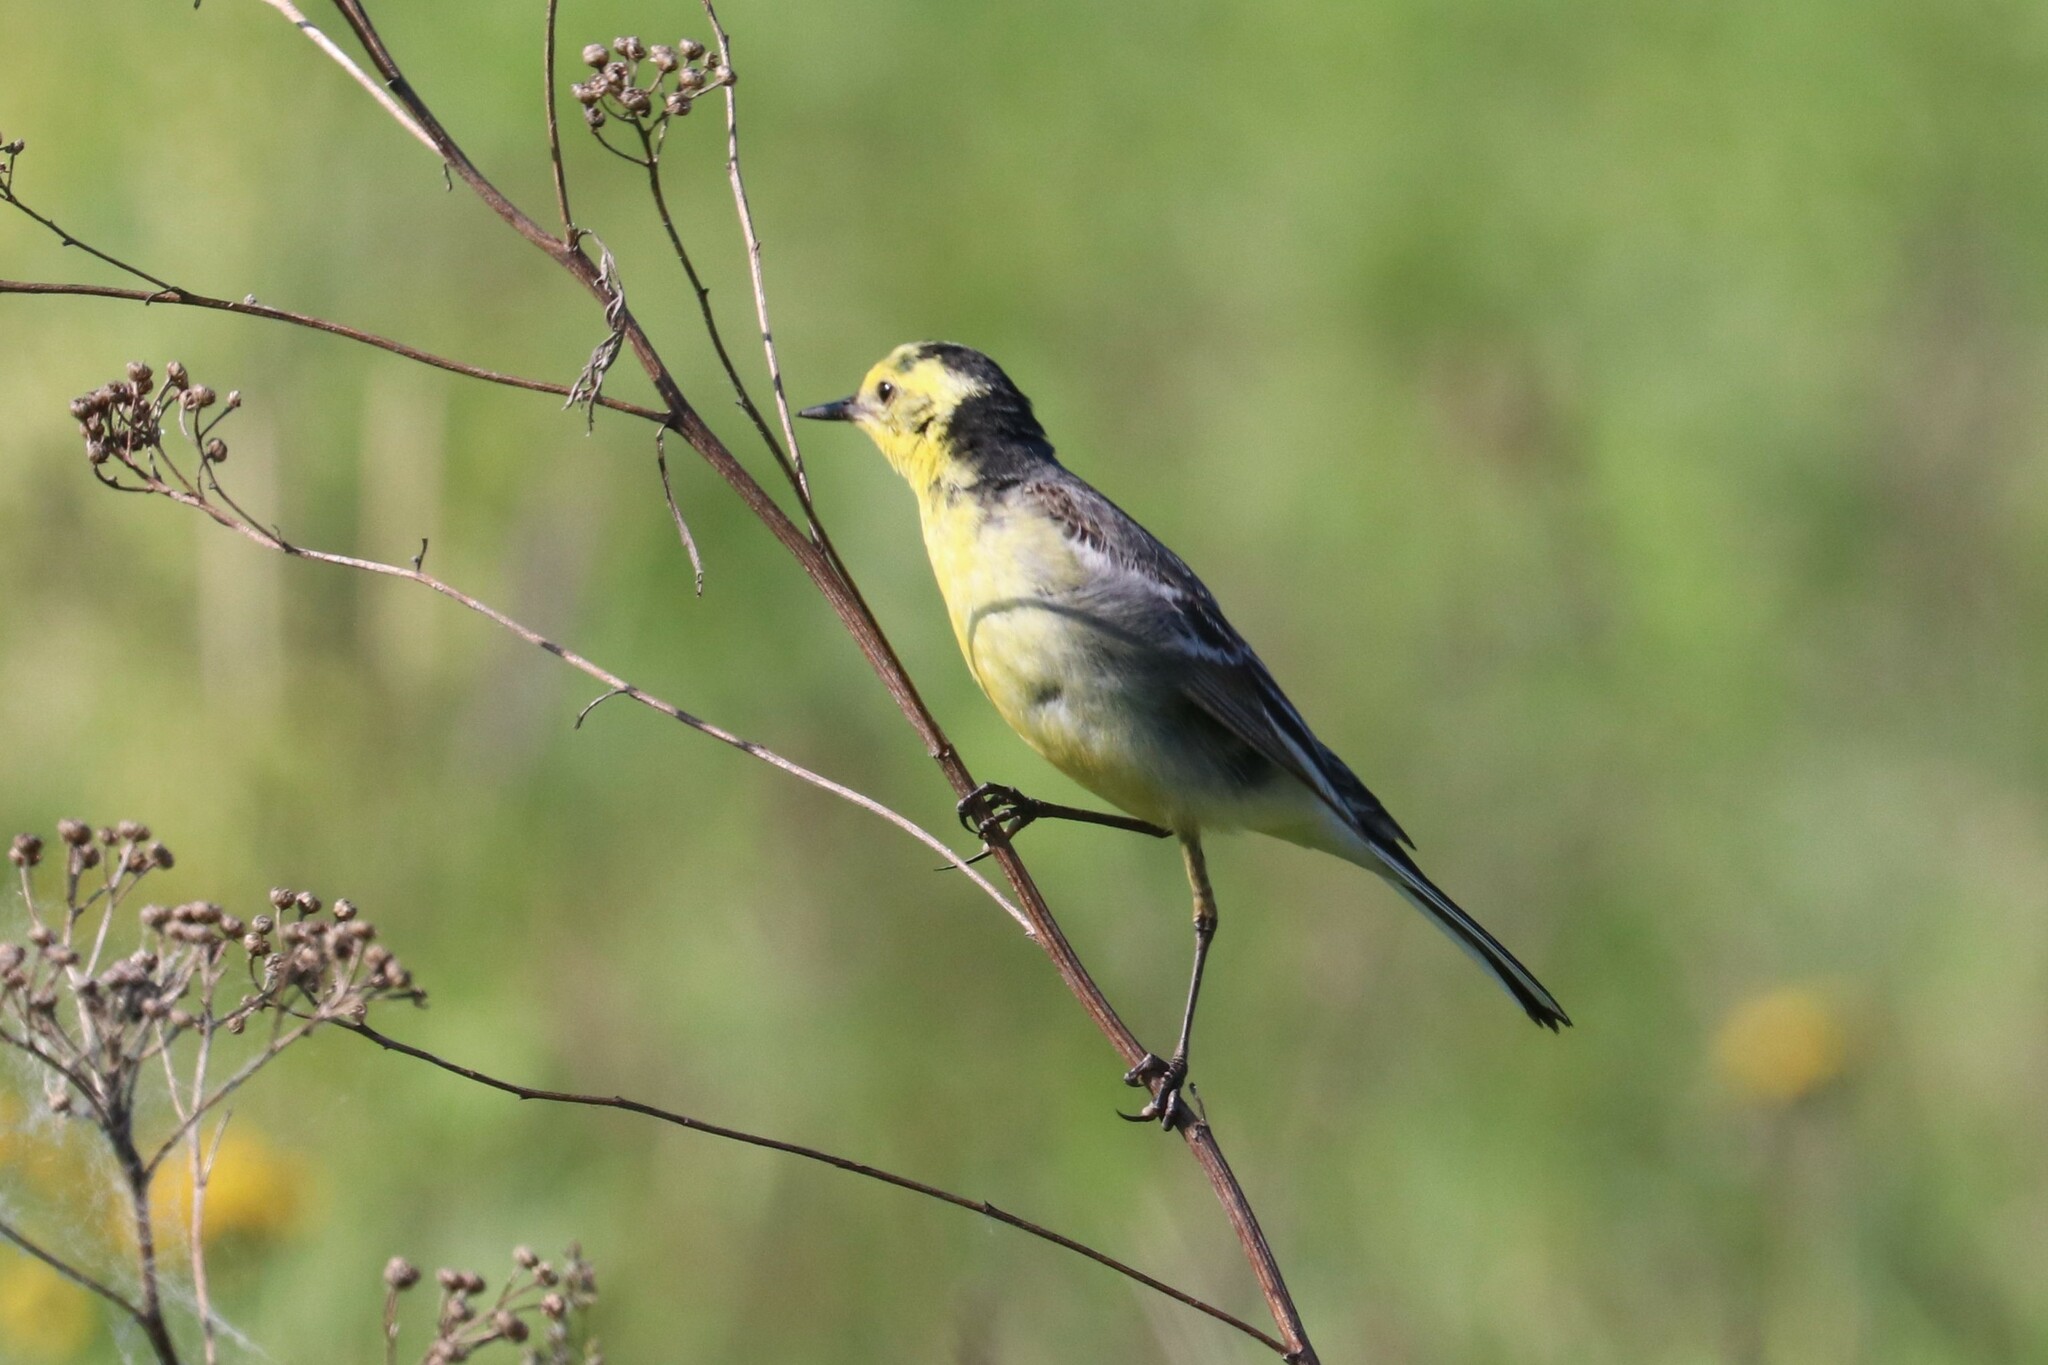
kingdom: Animalia
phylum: Chordata
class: Aves
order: Passeriformes
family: Motacillidae
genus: Motacilla
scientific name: Motacilla citreola
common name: Citrine wagtail
